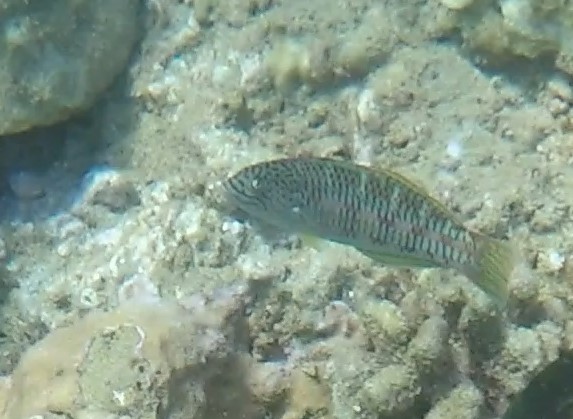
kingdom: Animalia
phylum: Chordata
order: Perciformes
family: Labridae
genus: Thalassoma
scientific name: Thalassoma purpureum
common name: Parrotfish
